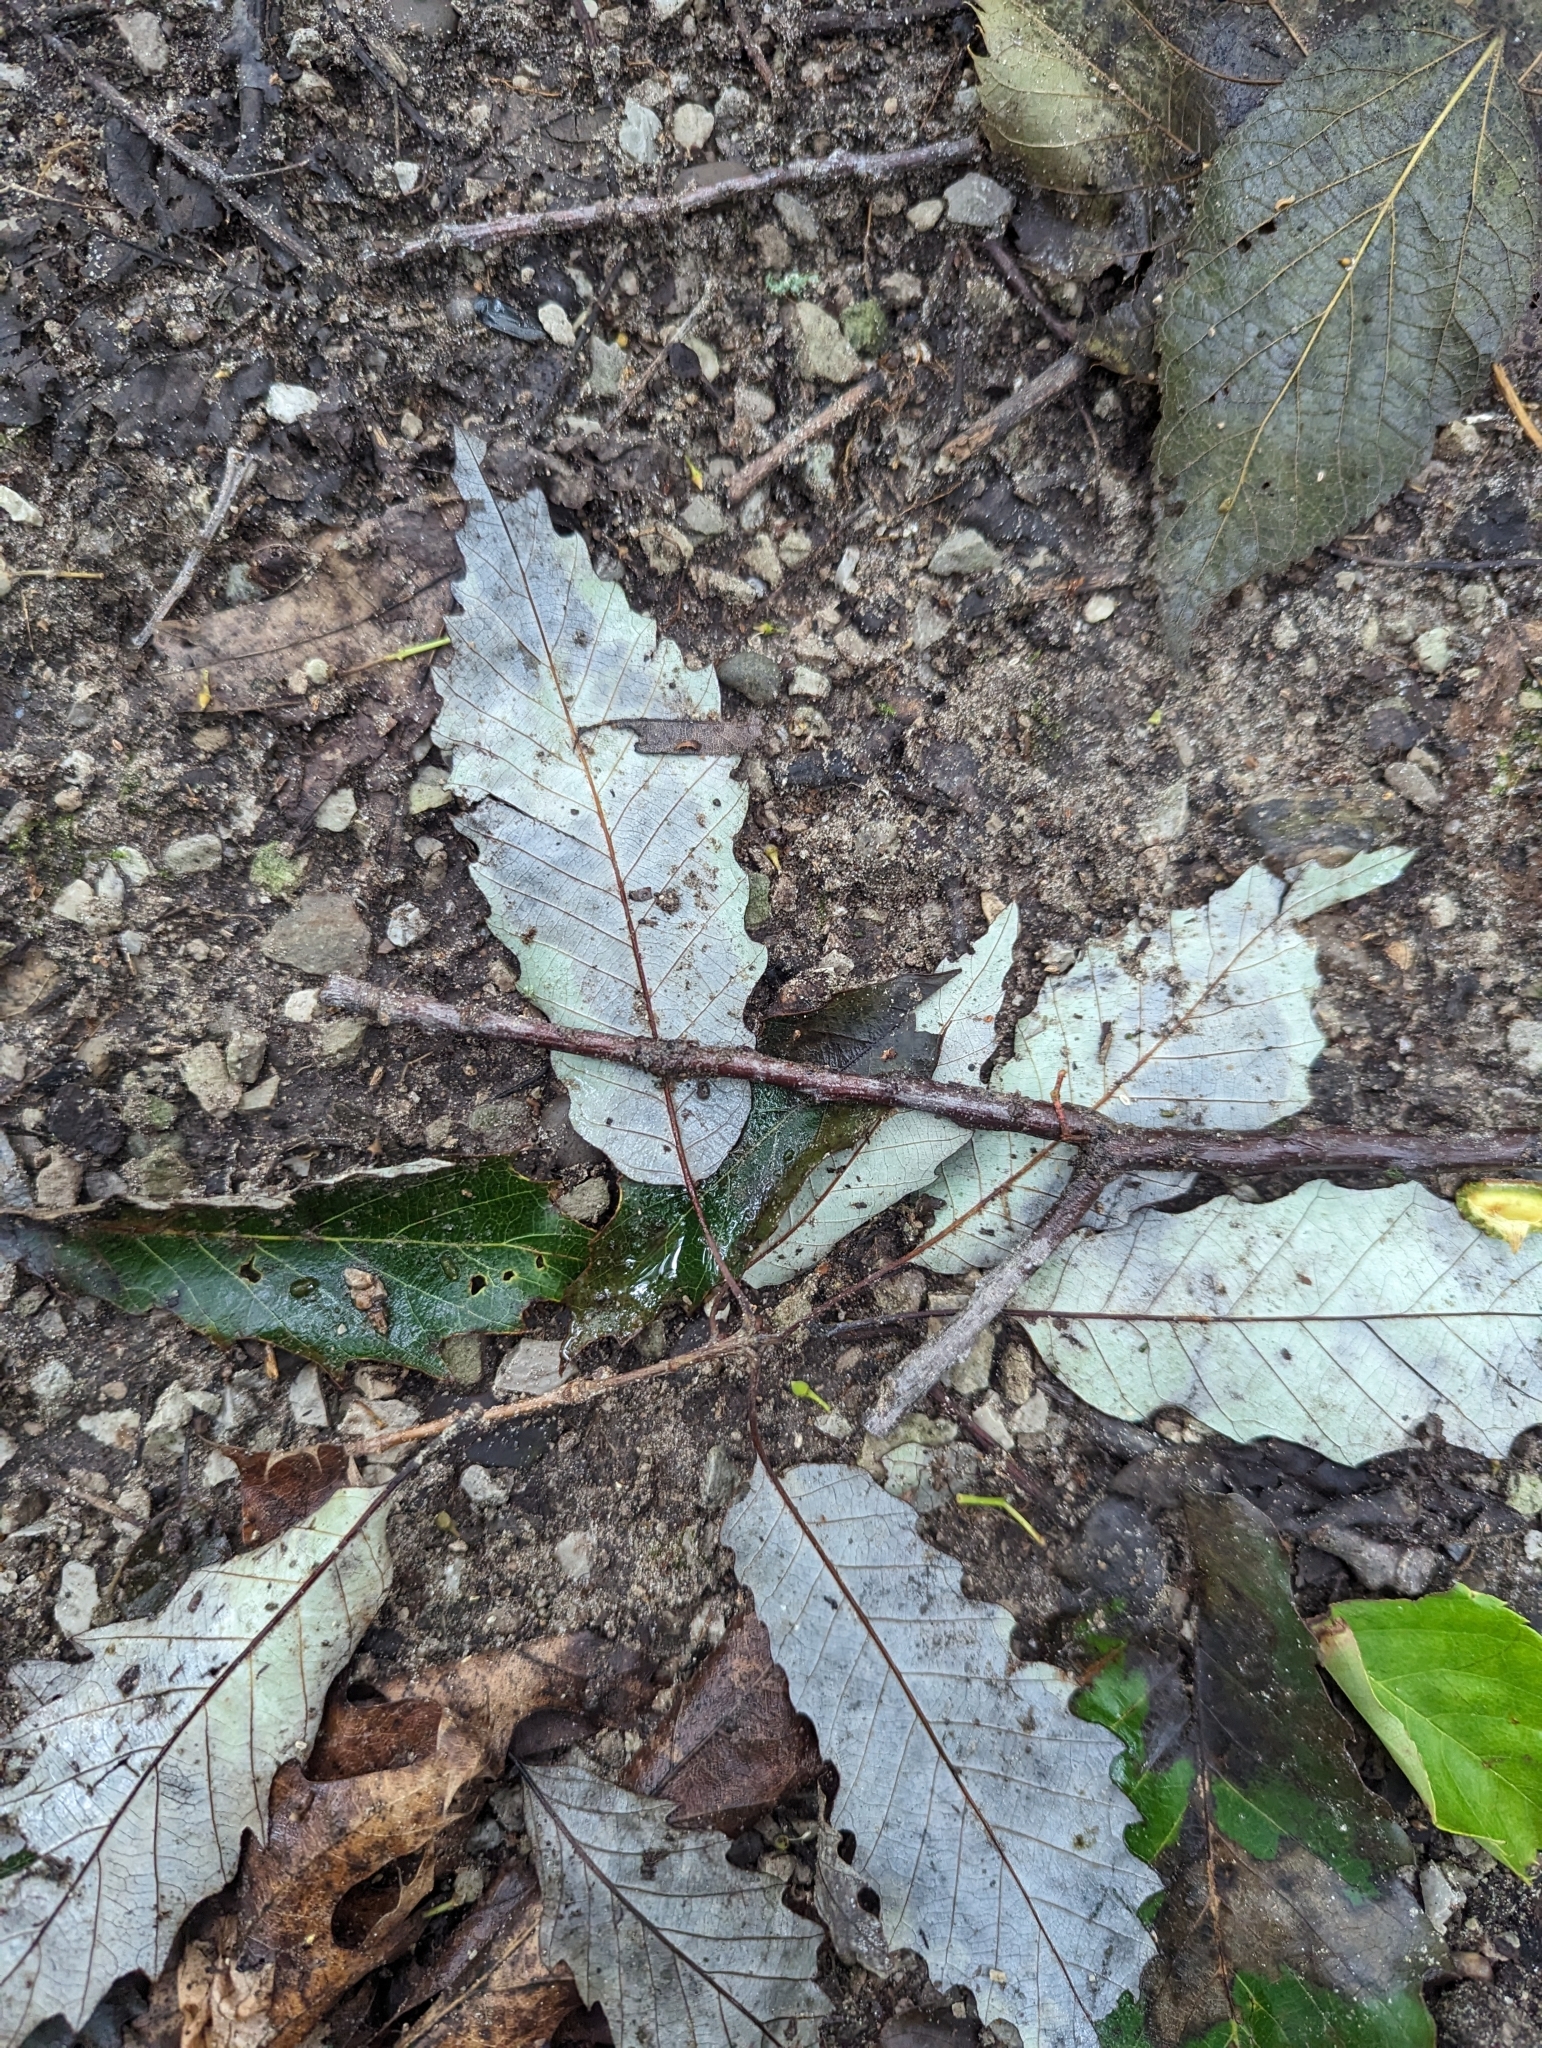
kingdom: Plantae
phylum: Tracheophyta
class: Magnoliopsida
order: Fagales
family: Fagaceae
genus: Quercus
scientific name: Quercus muehlenbergii
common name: Chinkapin oak
